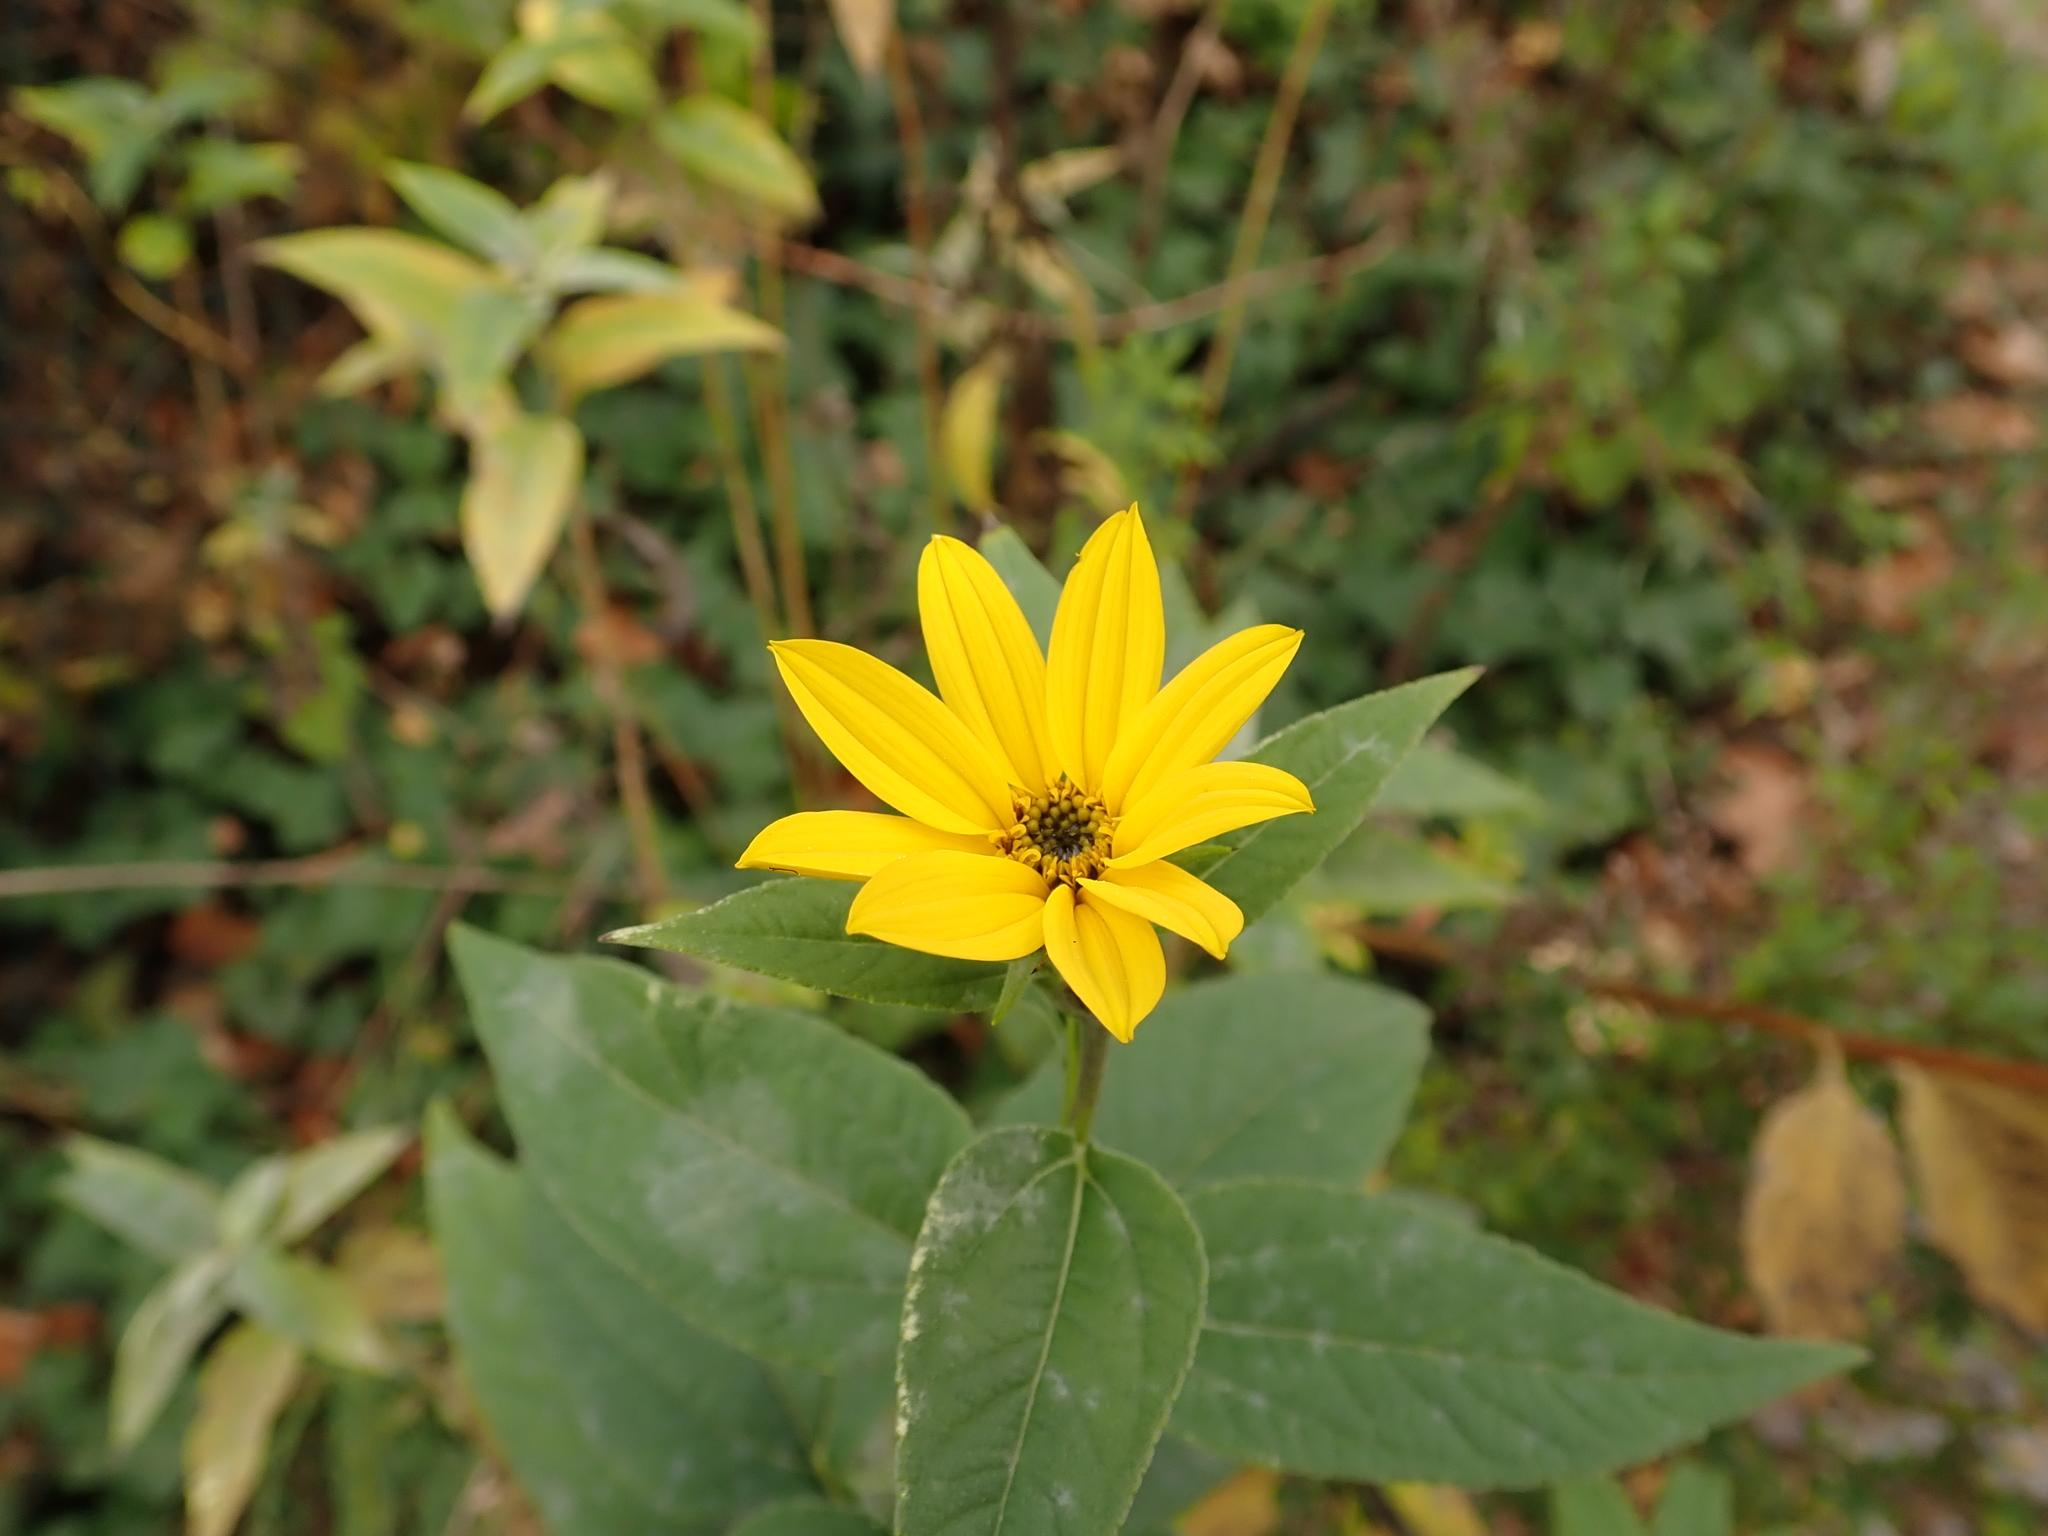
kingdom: Plantae
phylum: Tracheophyta
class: Magnoliopsida
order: Asterales
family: Asteraceae
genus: Helianthus
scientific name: Helianthus tuberosus
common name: Jerusalem artichoke
